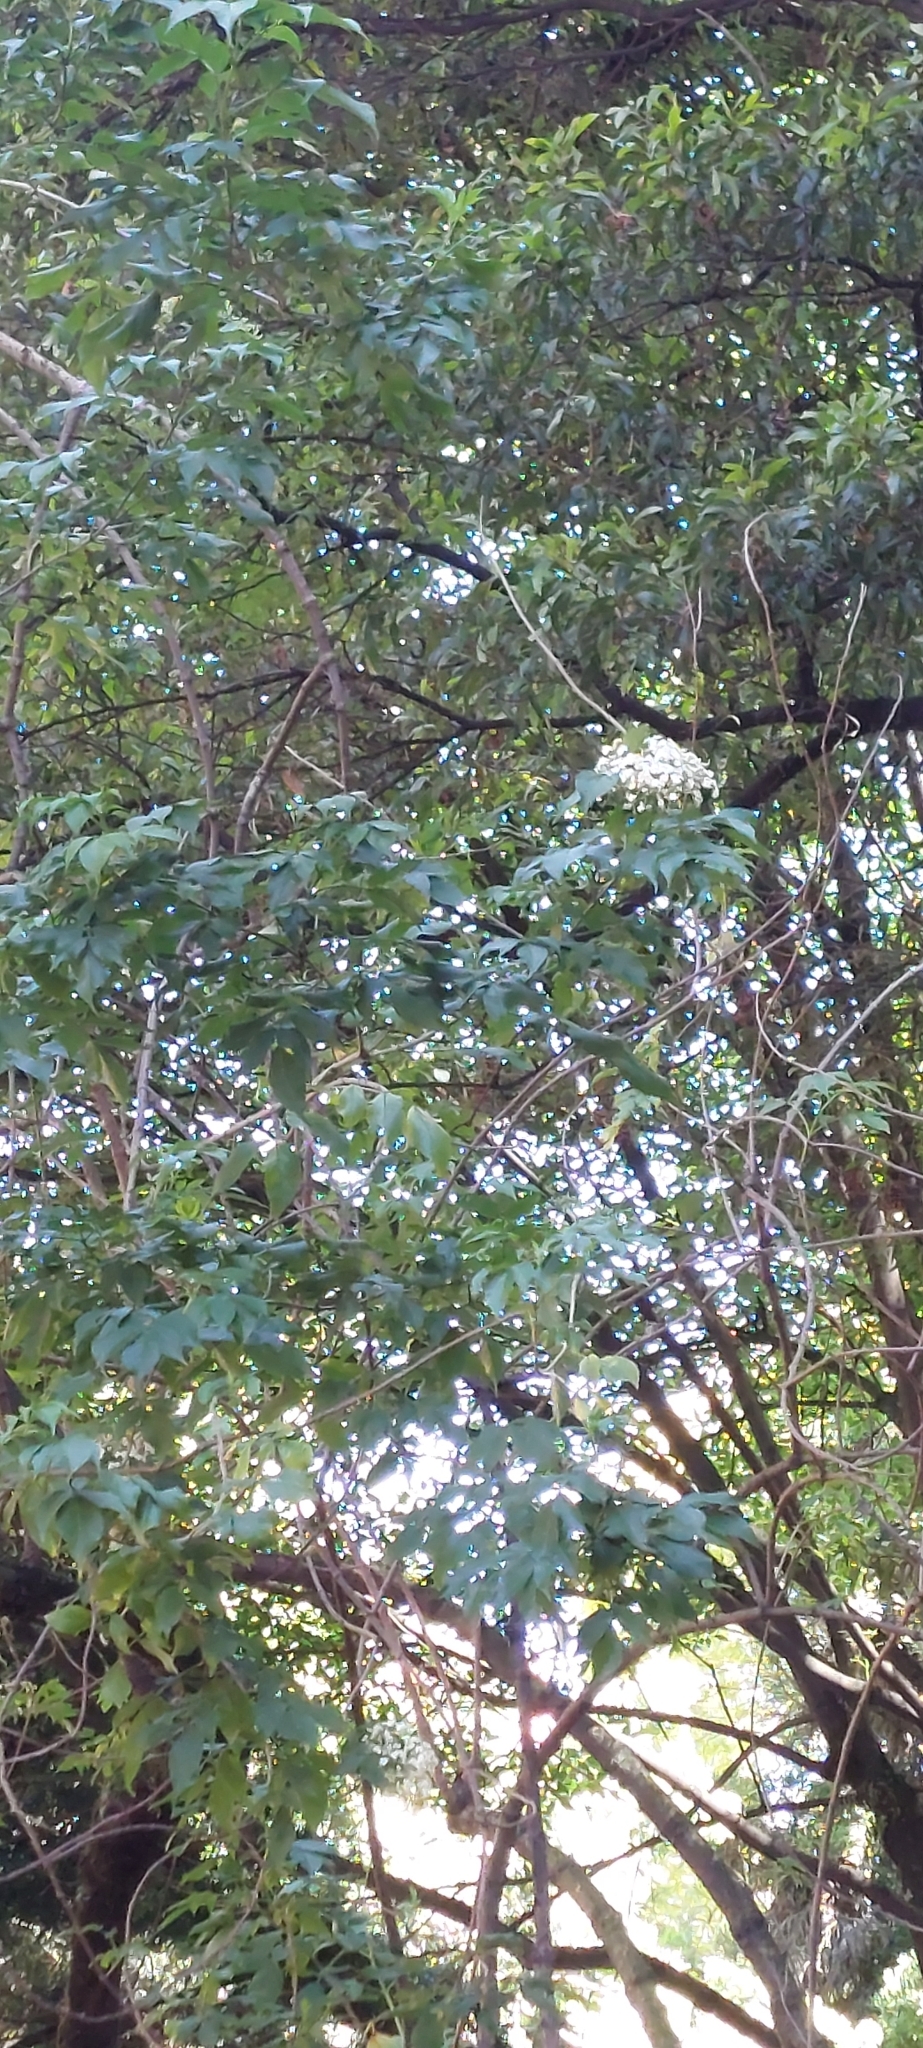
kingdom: Plantae
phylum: Tracheophyta
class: Magnoliopsida
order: Dipsacales
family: Viburnaceae
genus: Sambucus
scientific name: Sambucus nigra
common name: Elder
